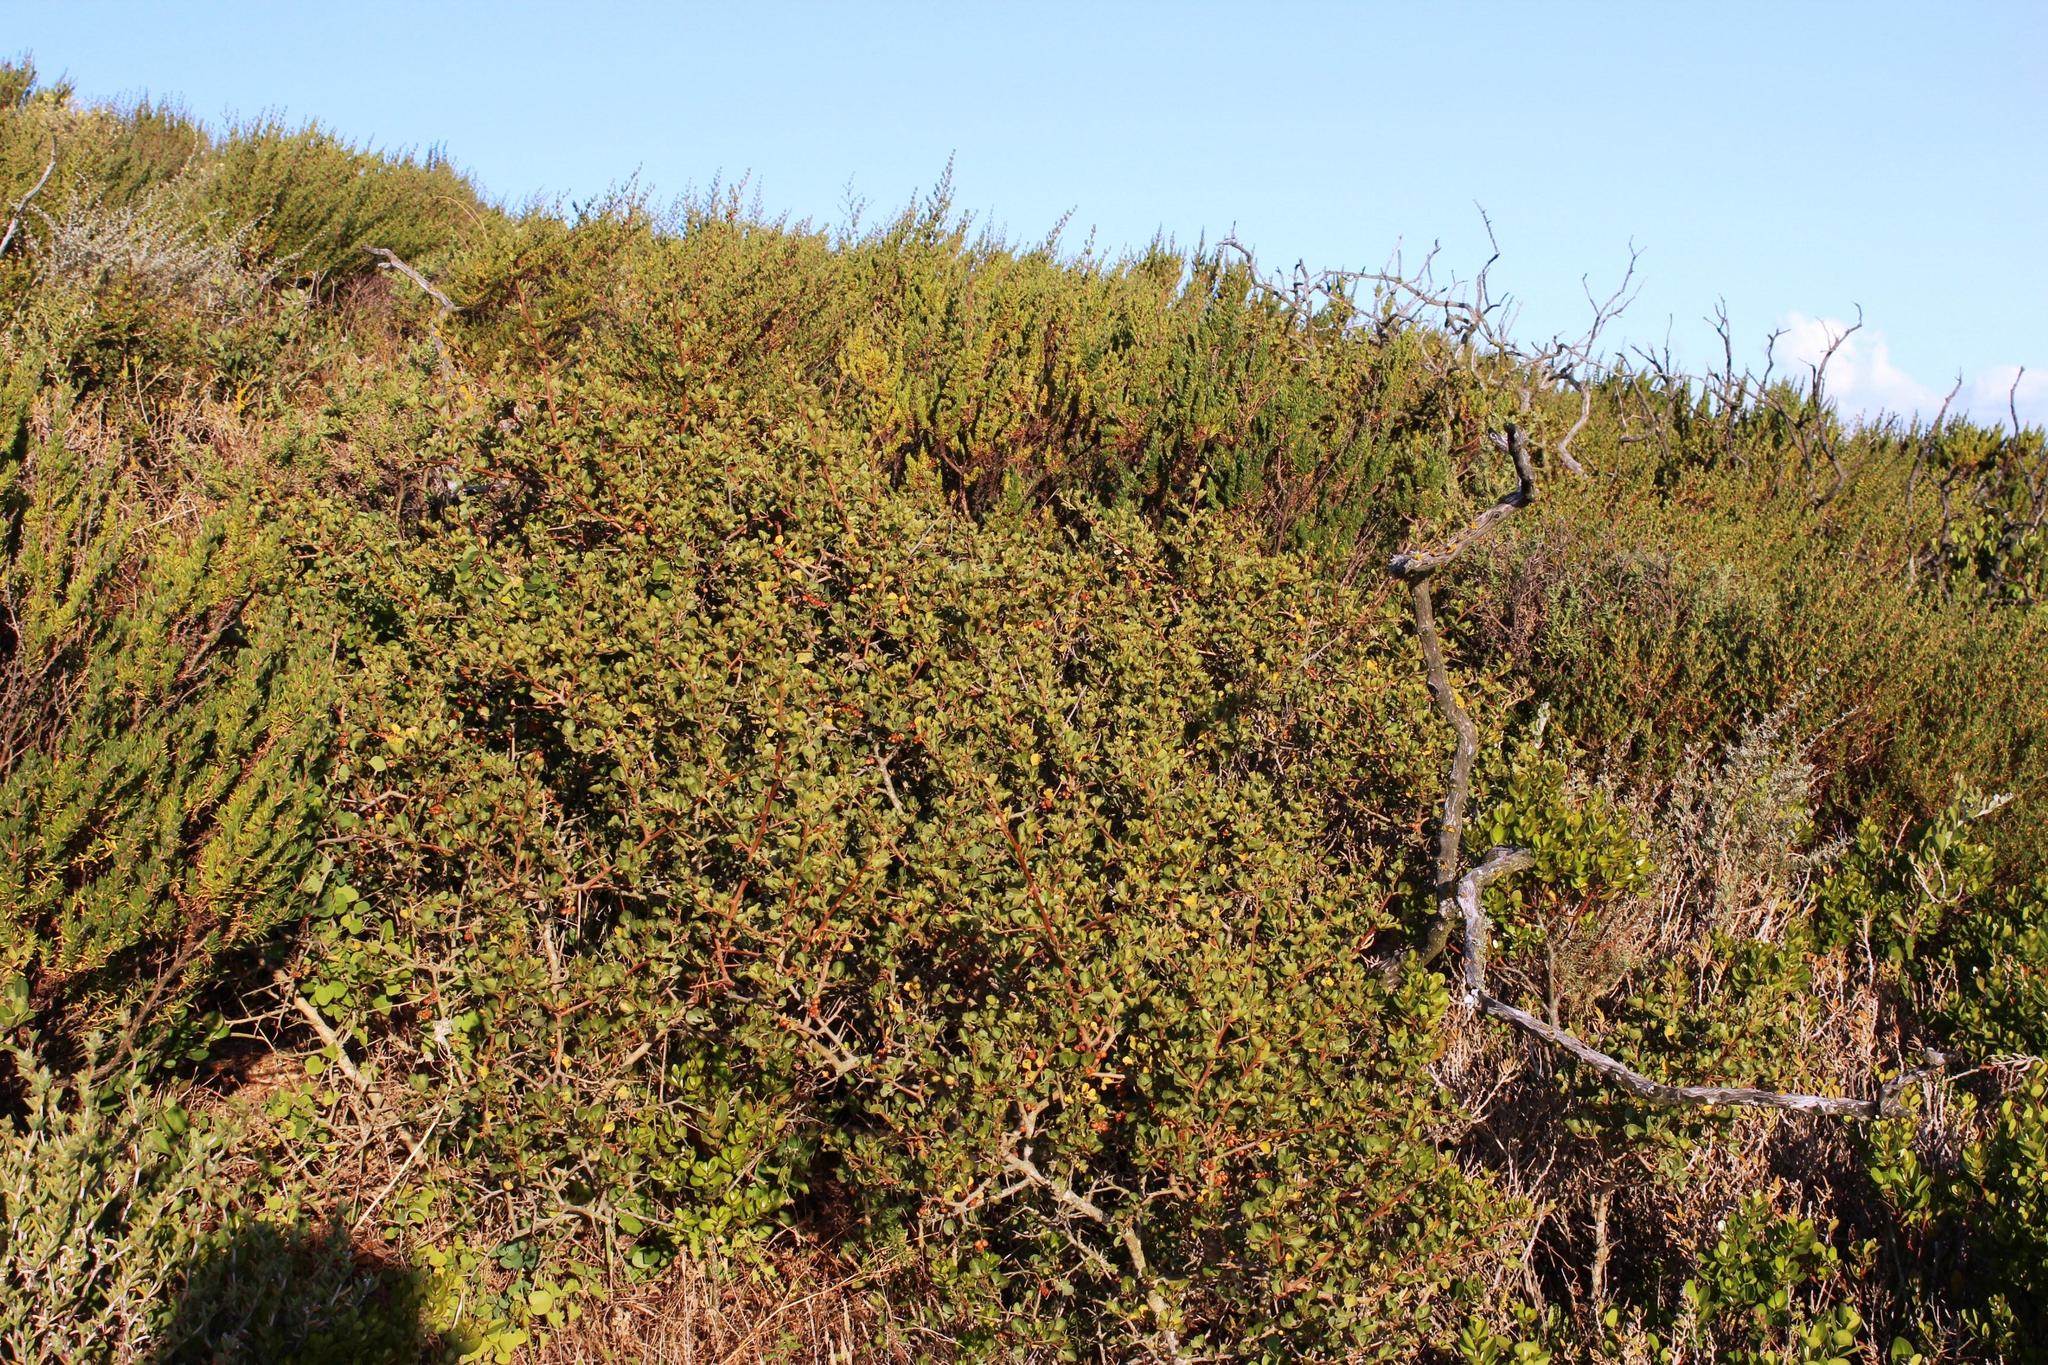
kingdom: Plantae
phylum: Tracheophyta
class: Magnoliopsida
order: Sapindales
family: Anacardiaceae
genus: Searsia
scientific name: Searsia glauca
